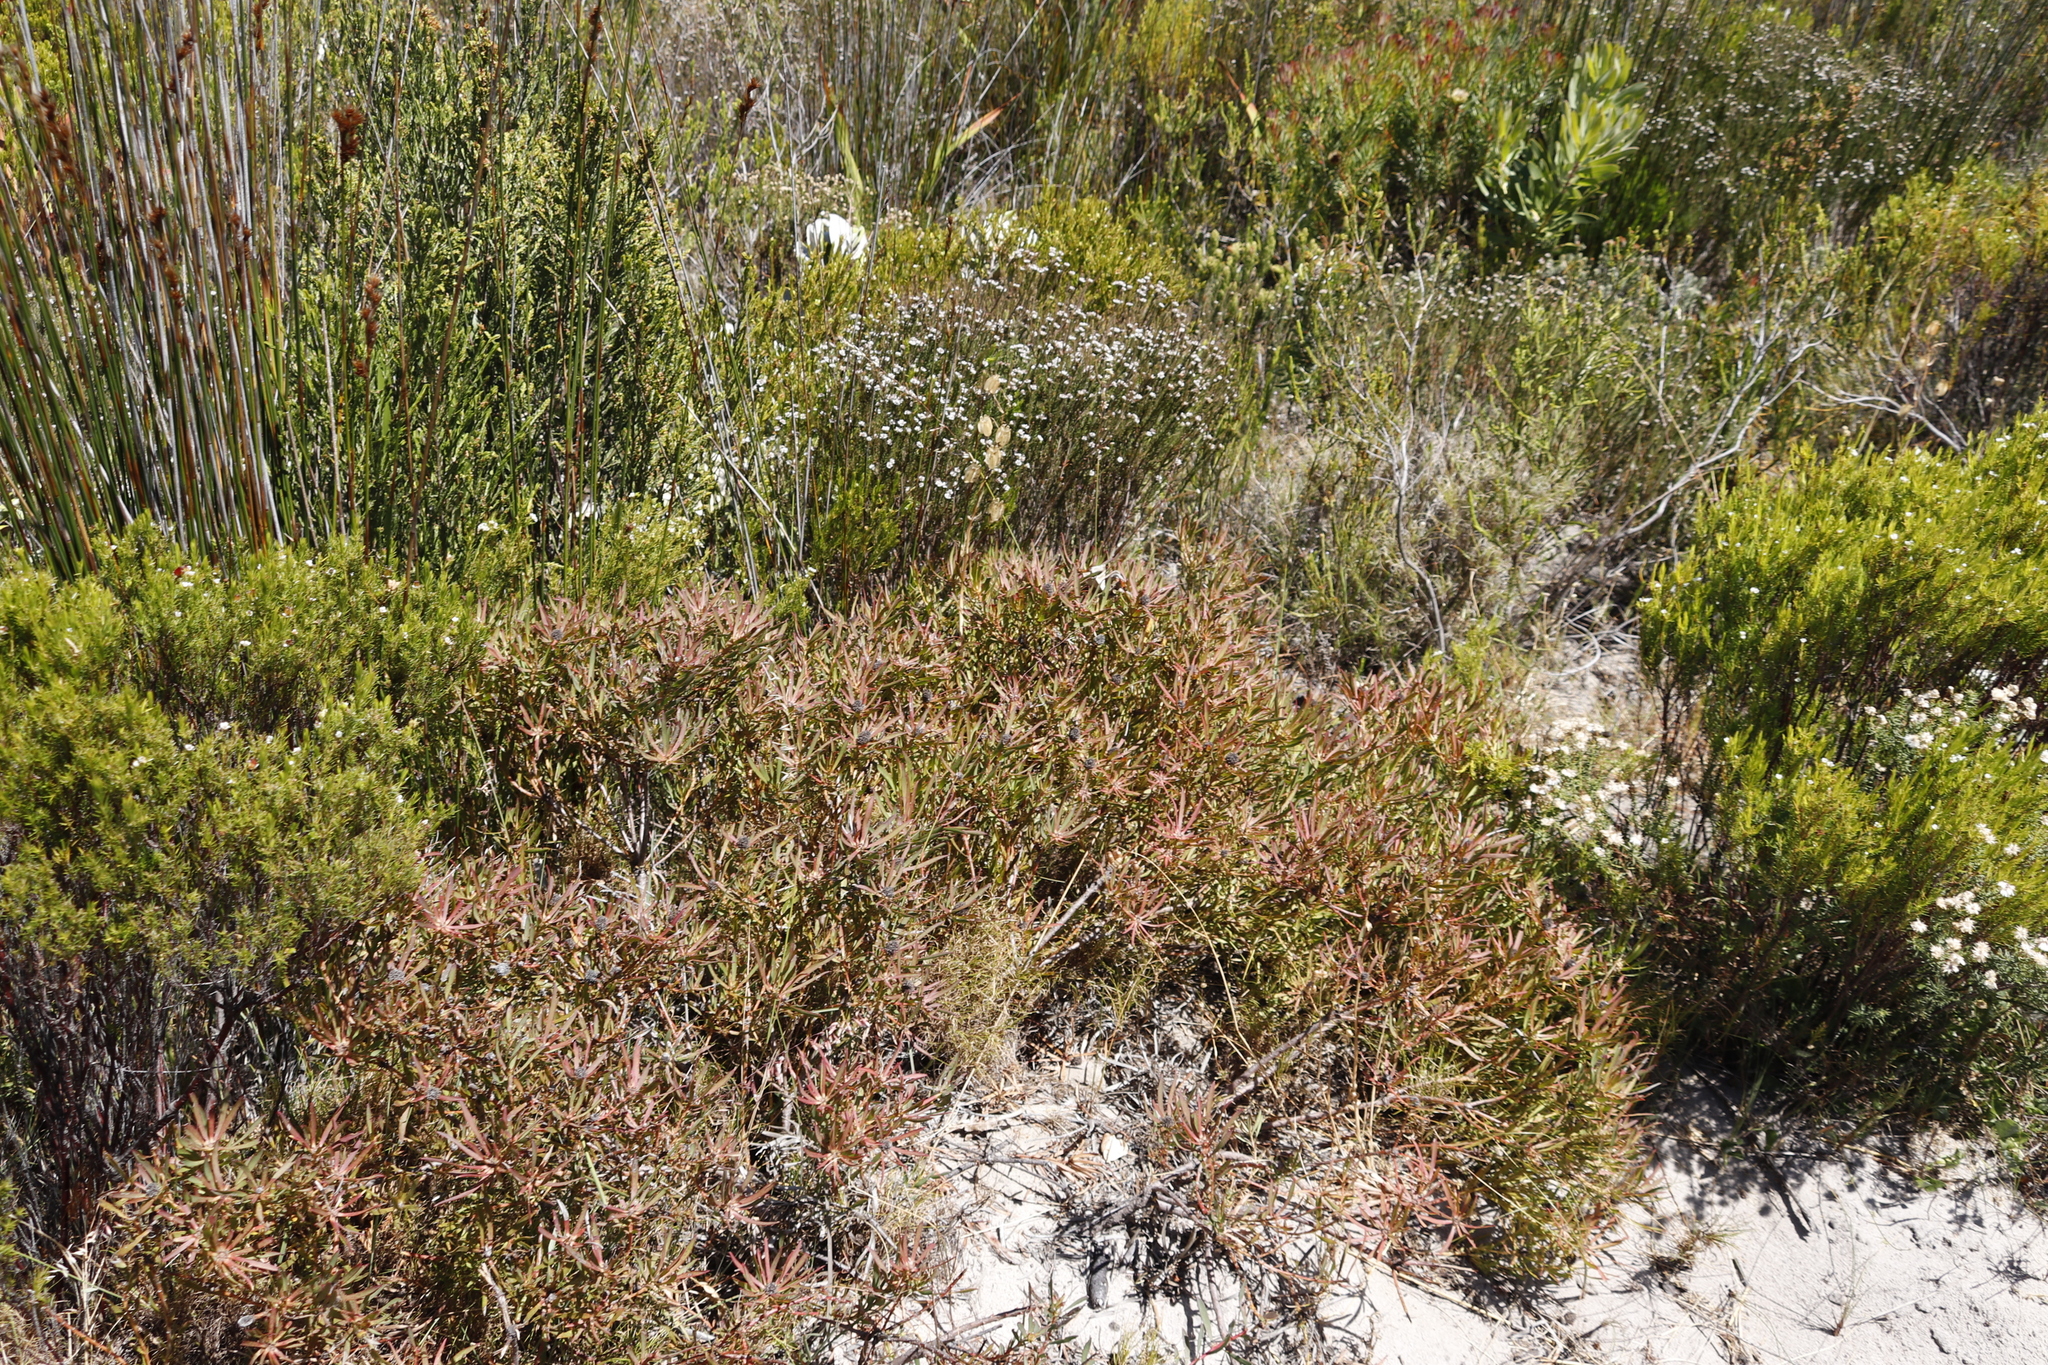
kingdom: Plantae
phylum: Tracheophyta
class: Magnoliopsida
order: Proteales
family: Proteaceae
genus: Leucadendron
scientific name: Leucadendron salignum
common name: Common sunshine conebush
